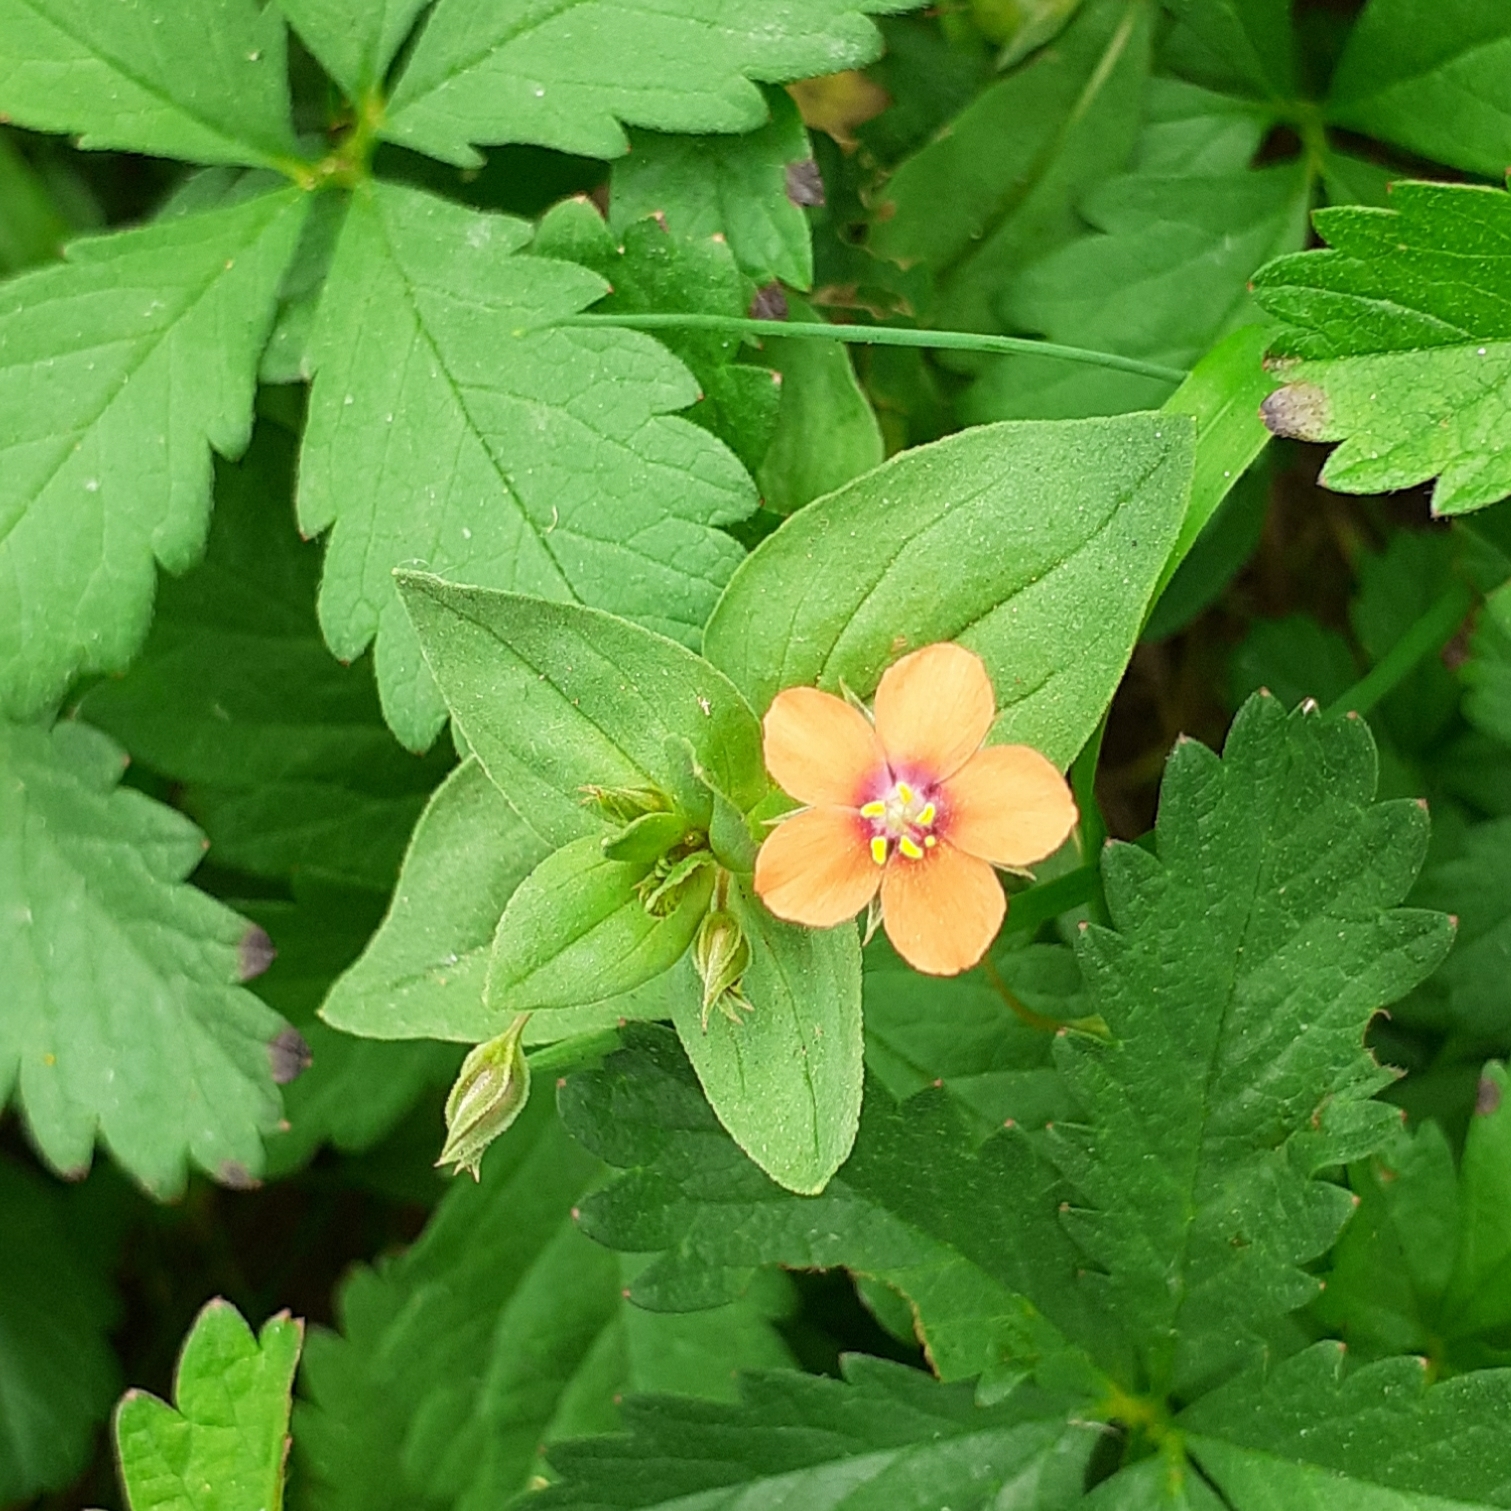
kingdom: Plantae
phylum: Tracheophyta
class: Magnoliopsida
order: Ericales
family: Primulaceae
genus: Lysimachia
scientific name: Lysimachia arvensis
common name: Scarlet pimpernel
